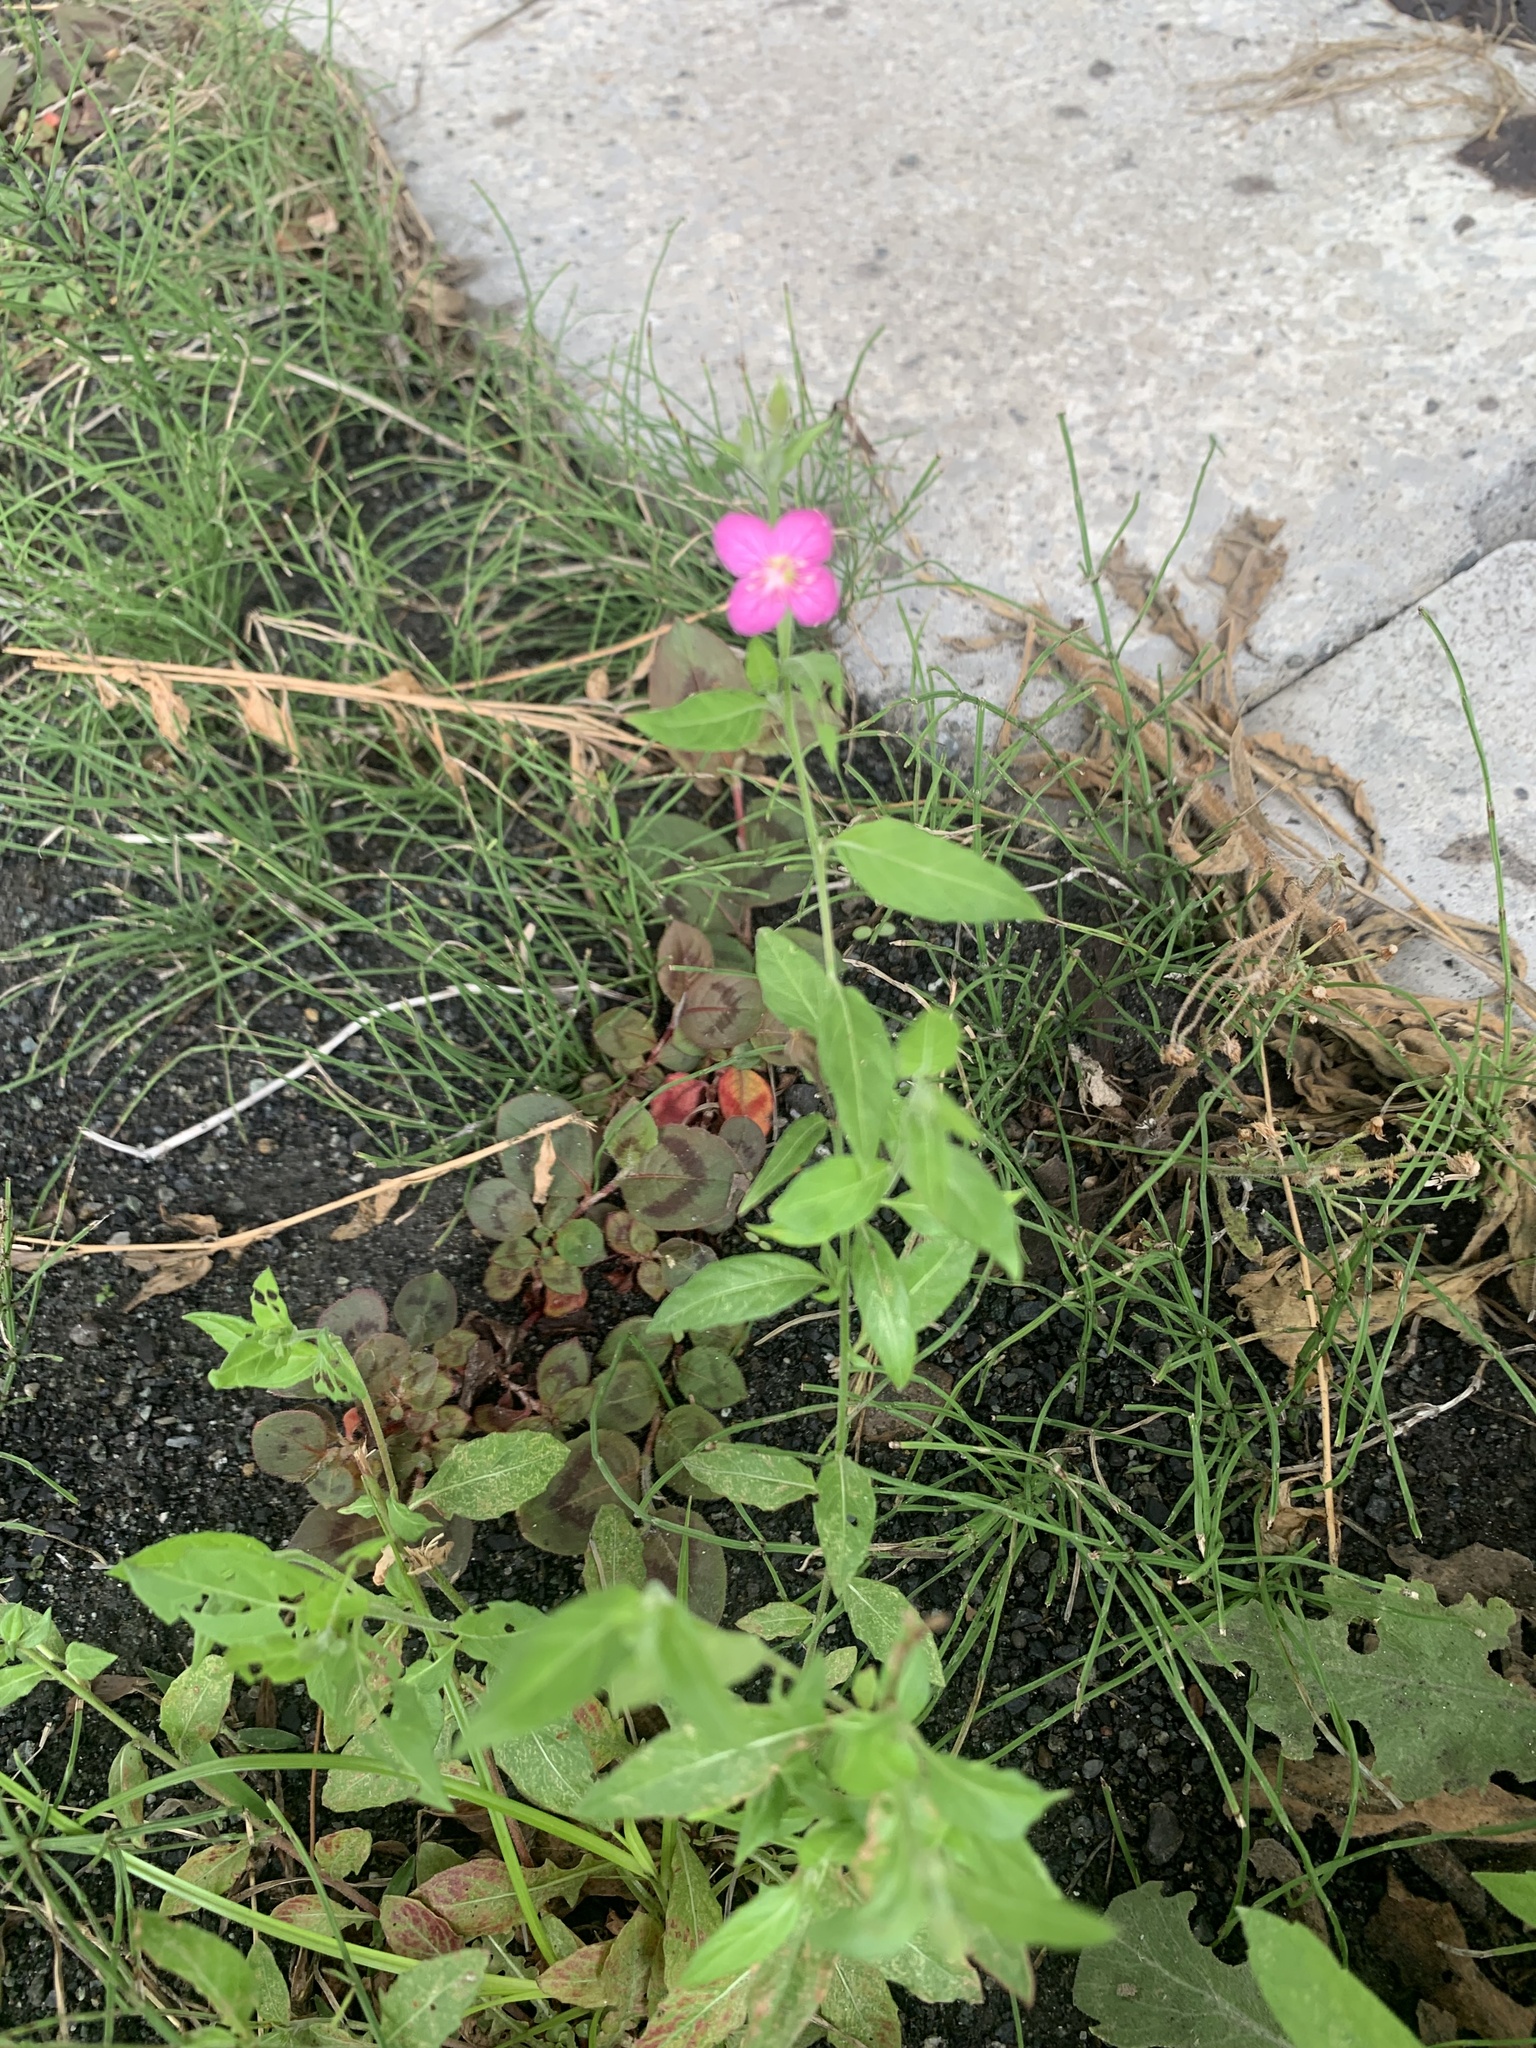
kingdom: Plantae
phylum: Tracheophyta
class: Magnoliopsida
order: Myrtales
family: Onagraceae
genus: Oenothera
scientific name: Oenothera rosea
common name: Rosy evening-primrose
